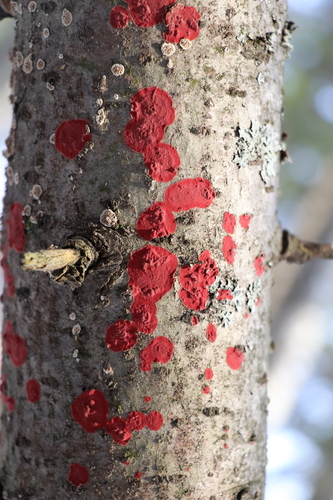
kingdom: Fungi
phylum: Basidiomycota
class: Agaricomycetes
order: Hymenochaetales
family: Hymenochaetaceae
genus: Hymenochaete
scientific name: Hymenochaete cruenta
